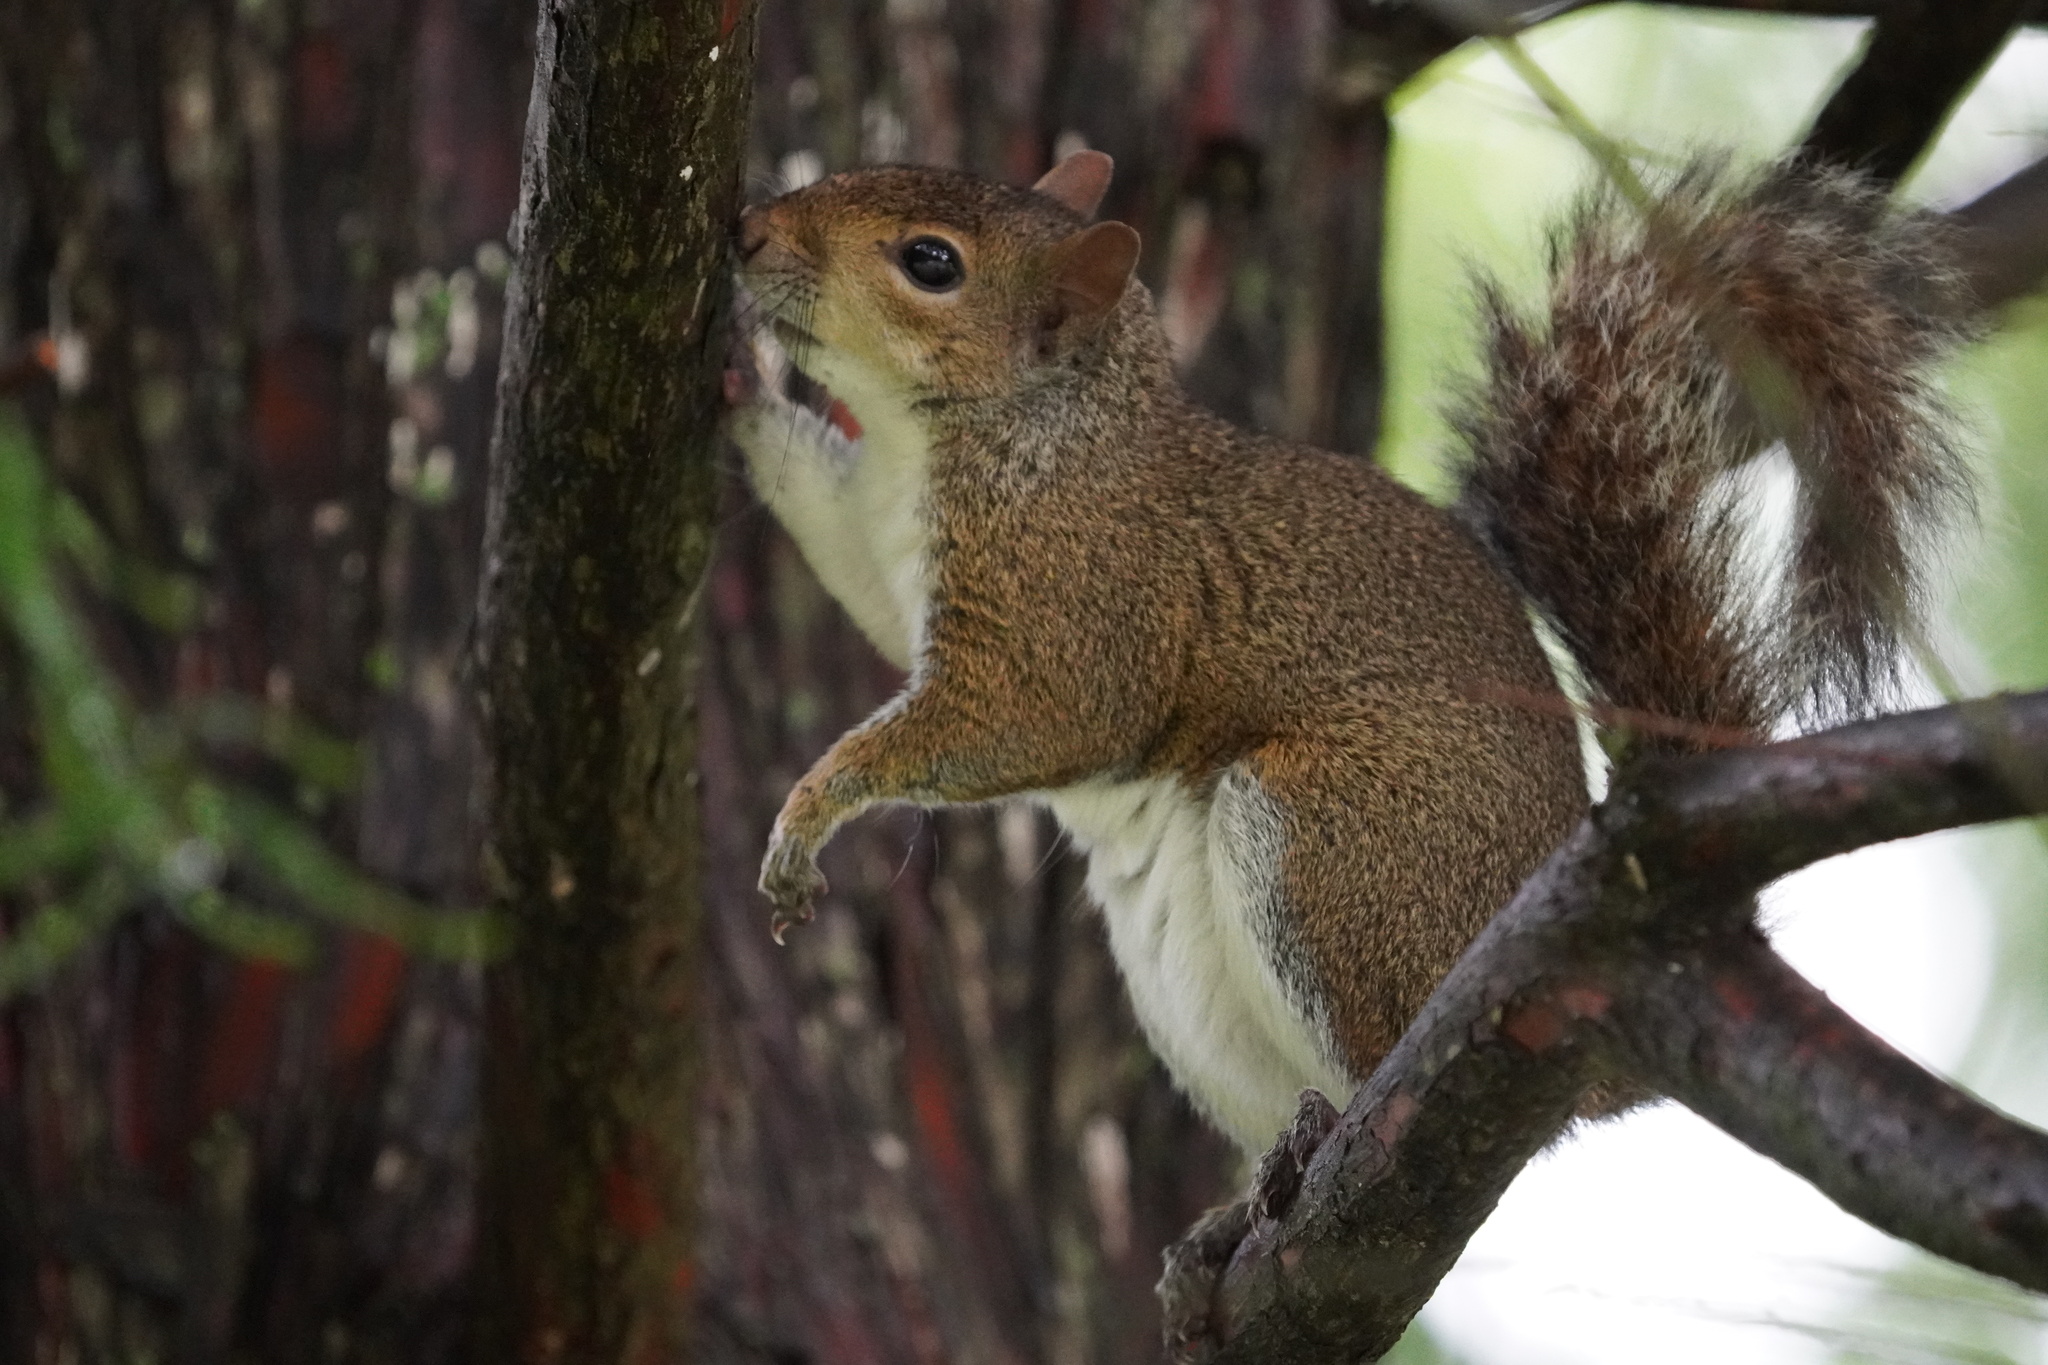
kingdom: Animalia
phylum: Chordata
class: Mammalia
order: Rodentia
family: Sciuridae
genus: Sciurus
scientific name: Sciurus carolinensis
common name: Eastern gray squirrel
